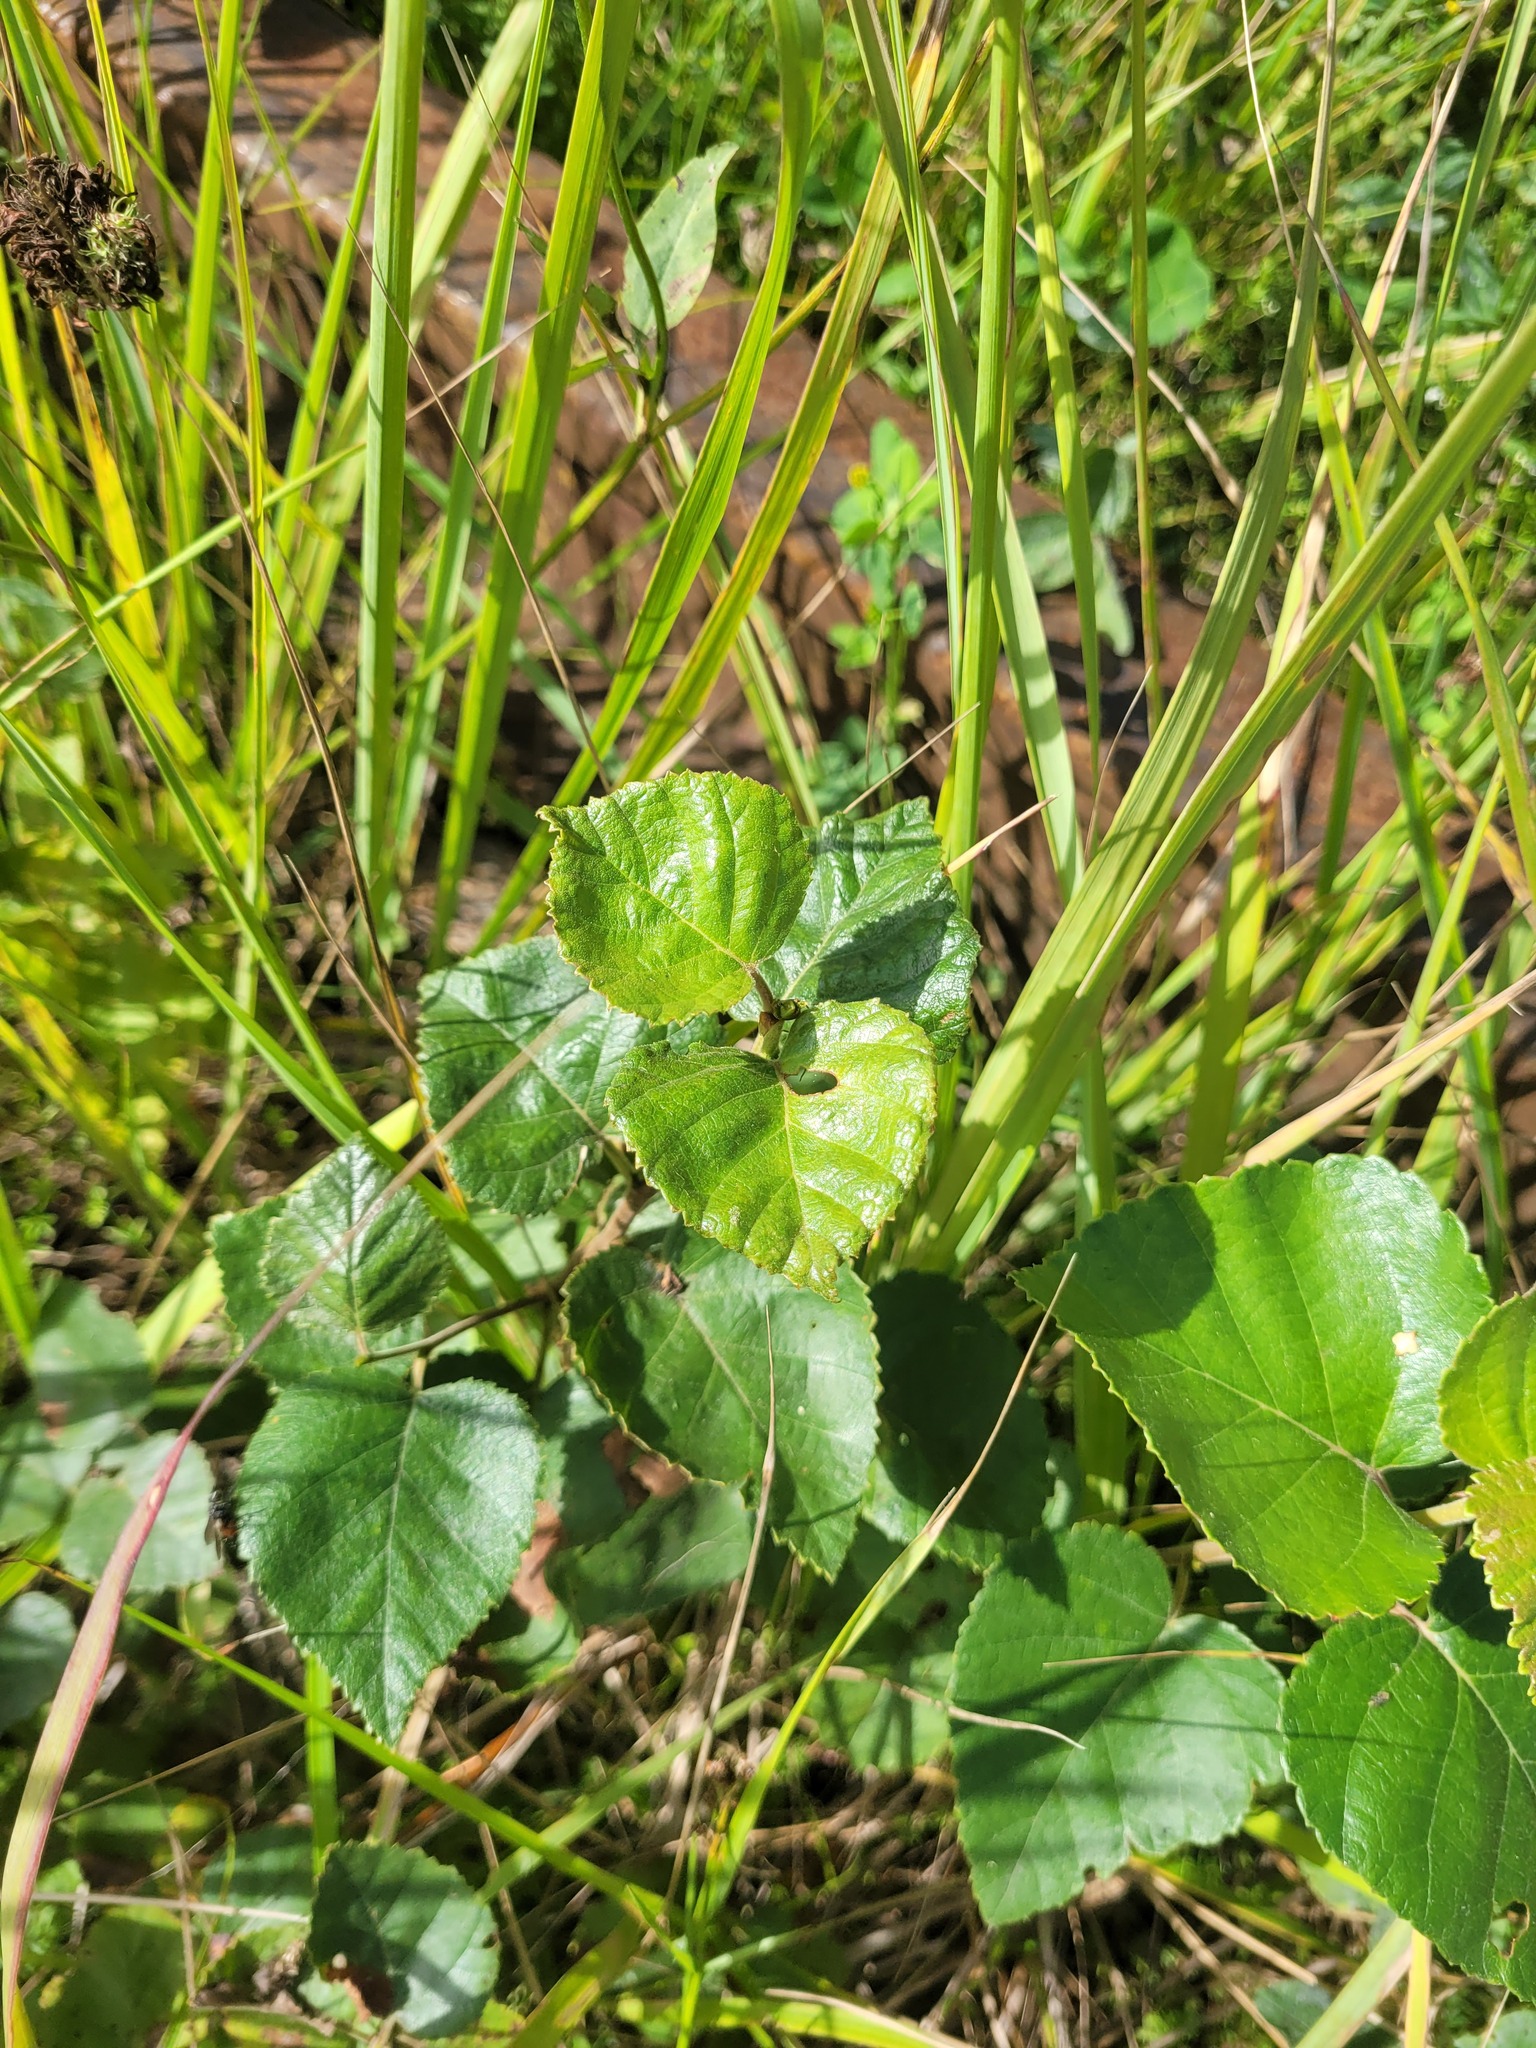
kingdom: Plantae
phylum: Tracheophyta
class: Magnoliopsida
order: Fagales
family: Betulaceae
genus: Betula
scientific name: Betula pubescens
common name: Downy birch
